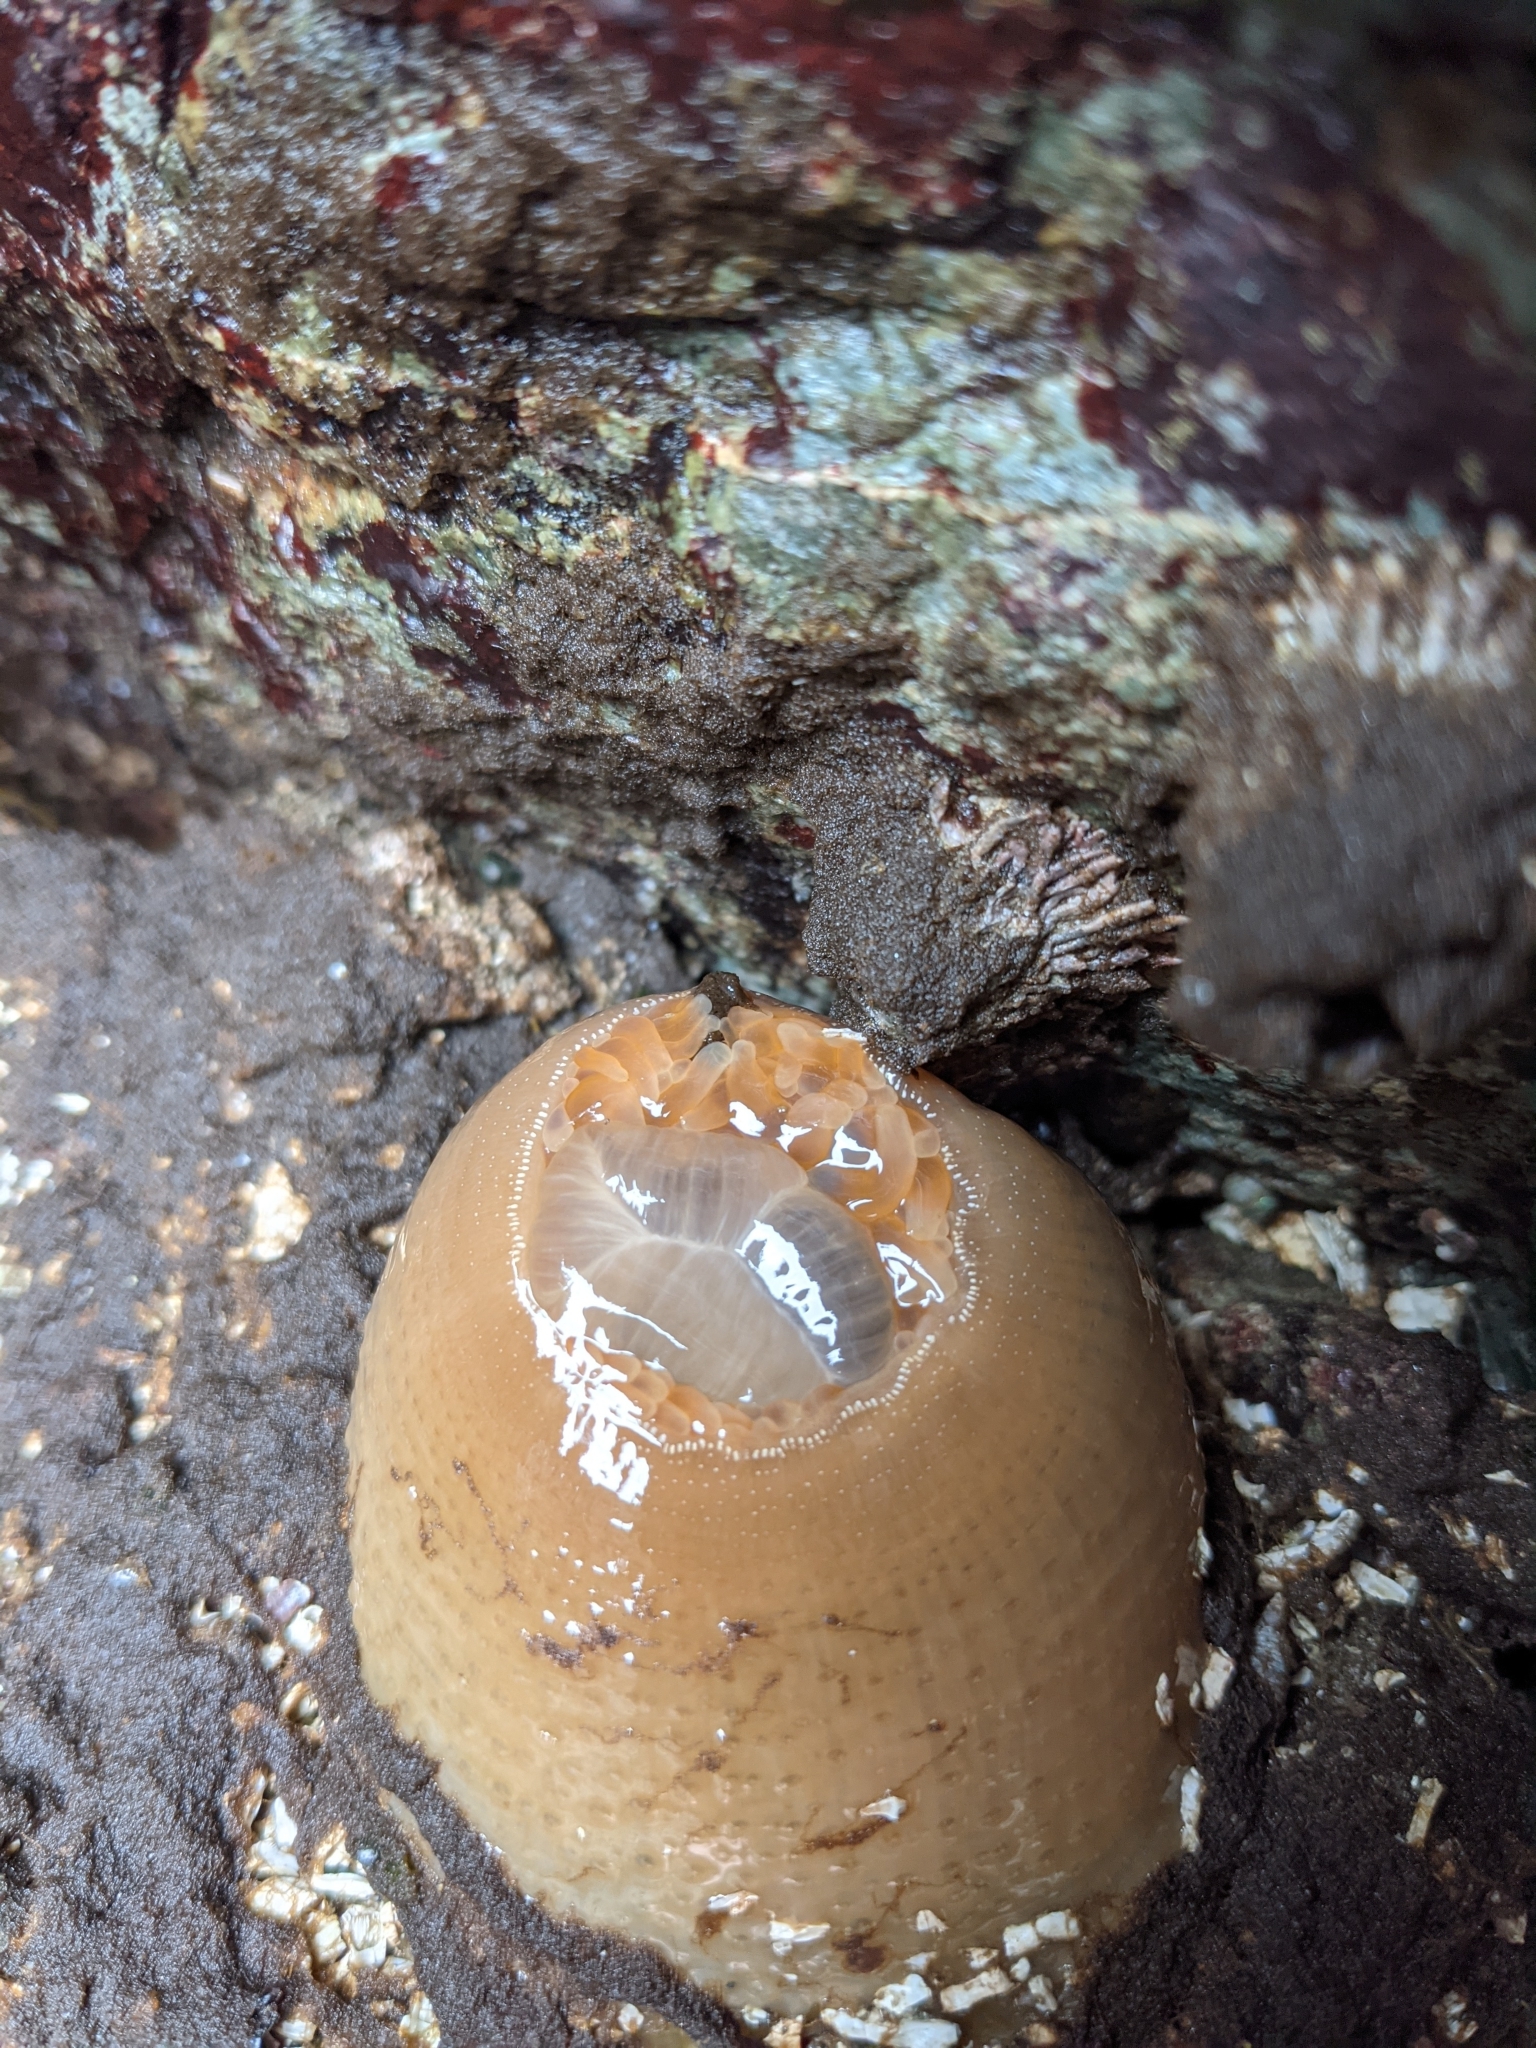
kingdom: Animalia
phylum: Cnidaria
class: Anthozoa
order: Actiniaria
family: Actiniidae
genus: Urticina
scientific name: Urticina grebelnyi
